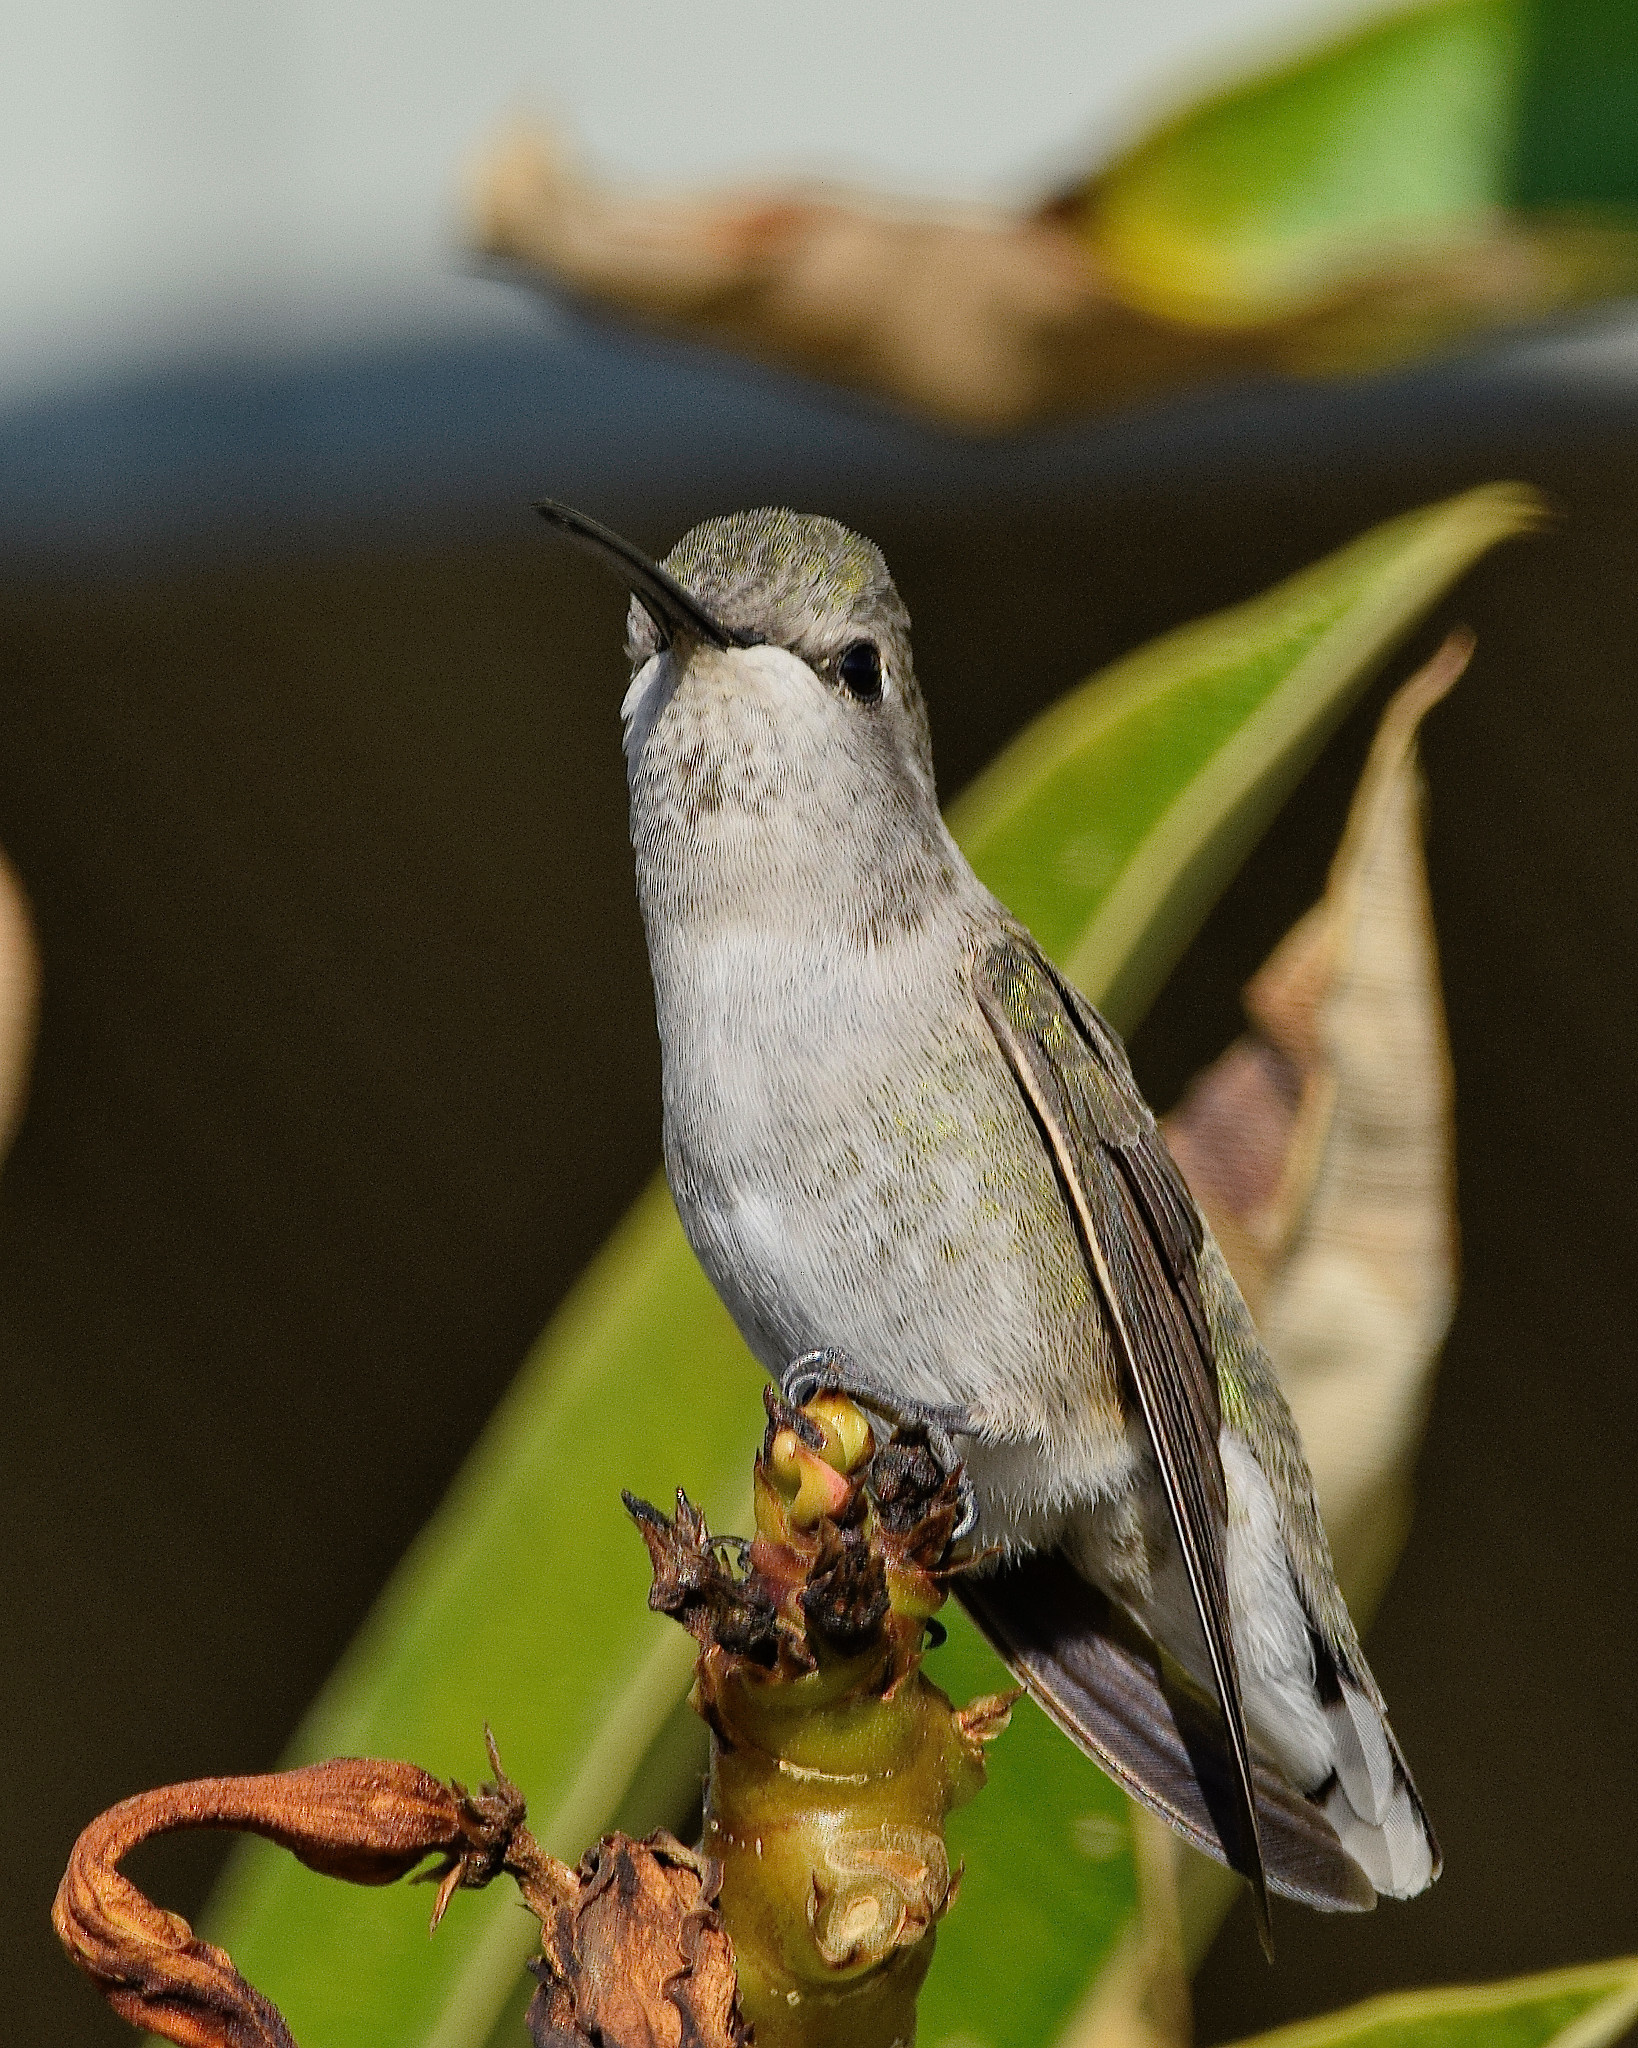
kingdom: Animalia
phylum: Chordata
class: Aves
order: Apodiformes
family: Trochilidae
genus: Calypte
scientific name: Calypte anna
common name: Anna's hummingbird
